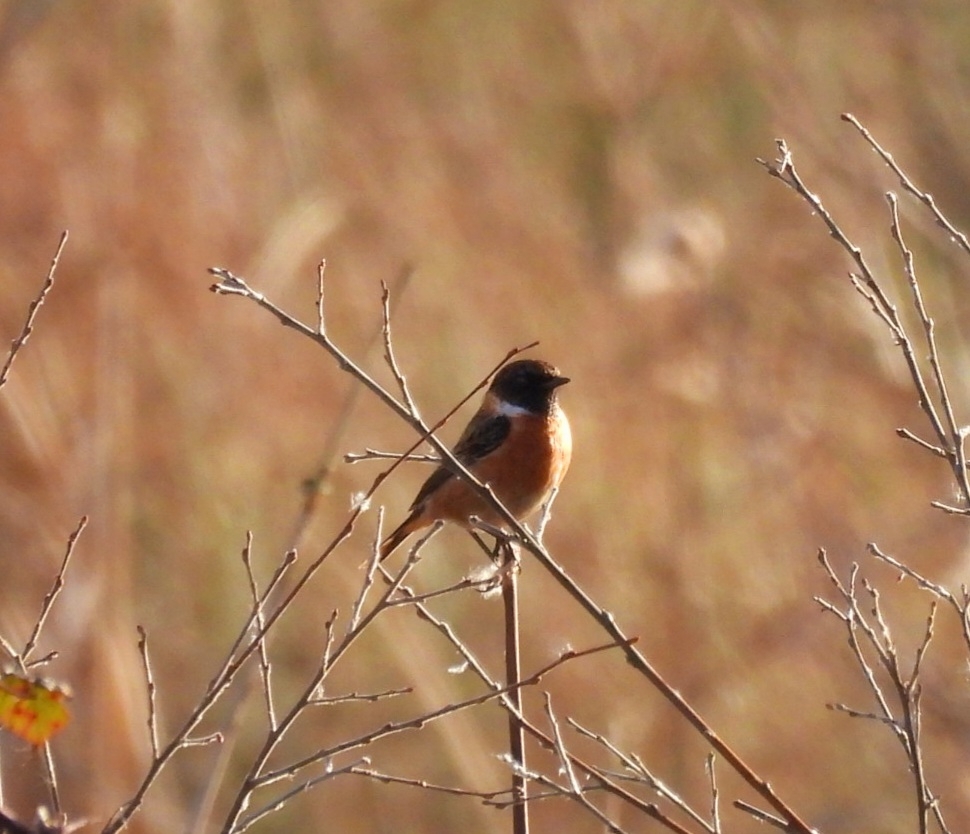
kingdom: Animalia
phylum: Chordata
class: Aves
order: Passeriformes
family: Muscicapidae
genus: Saxicola
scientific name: Saxicola rubicola
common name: European stonechat
